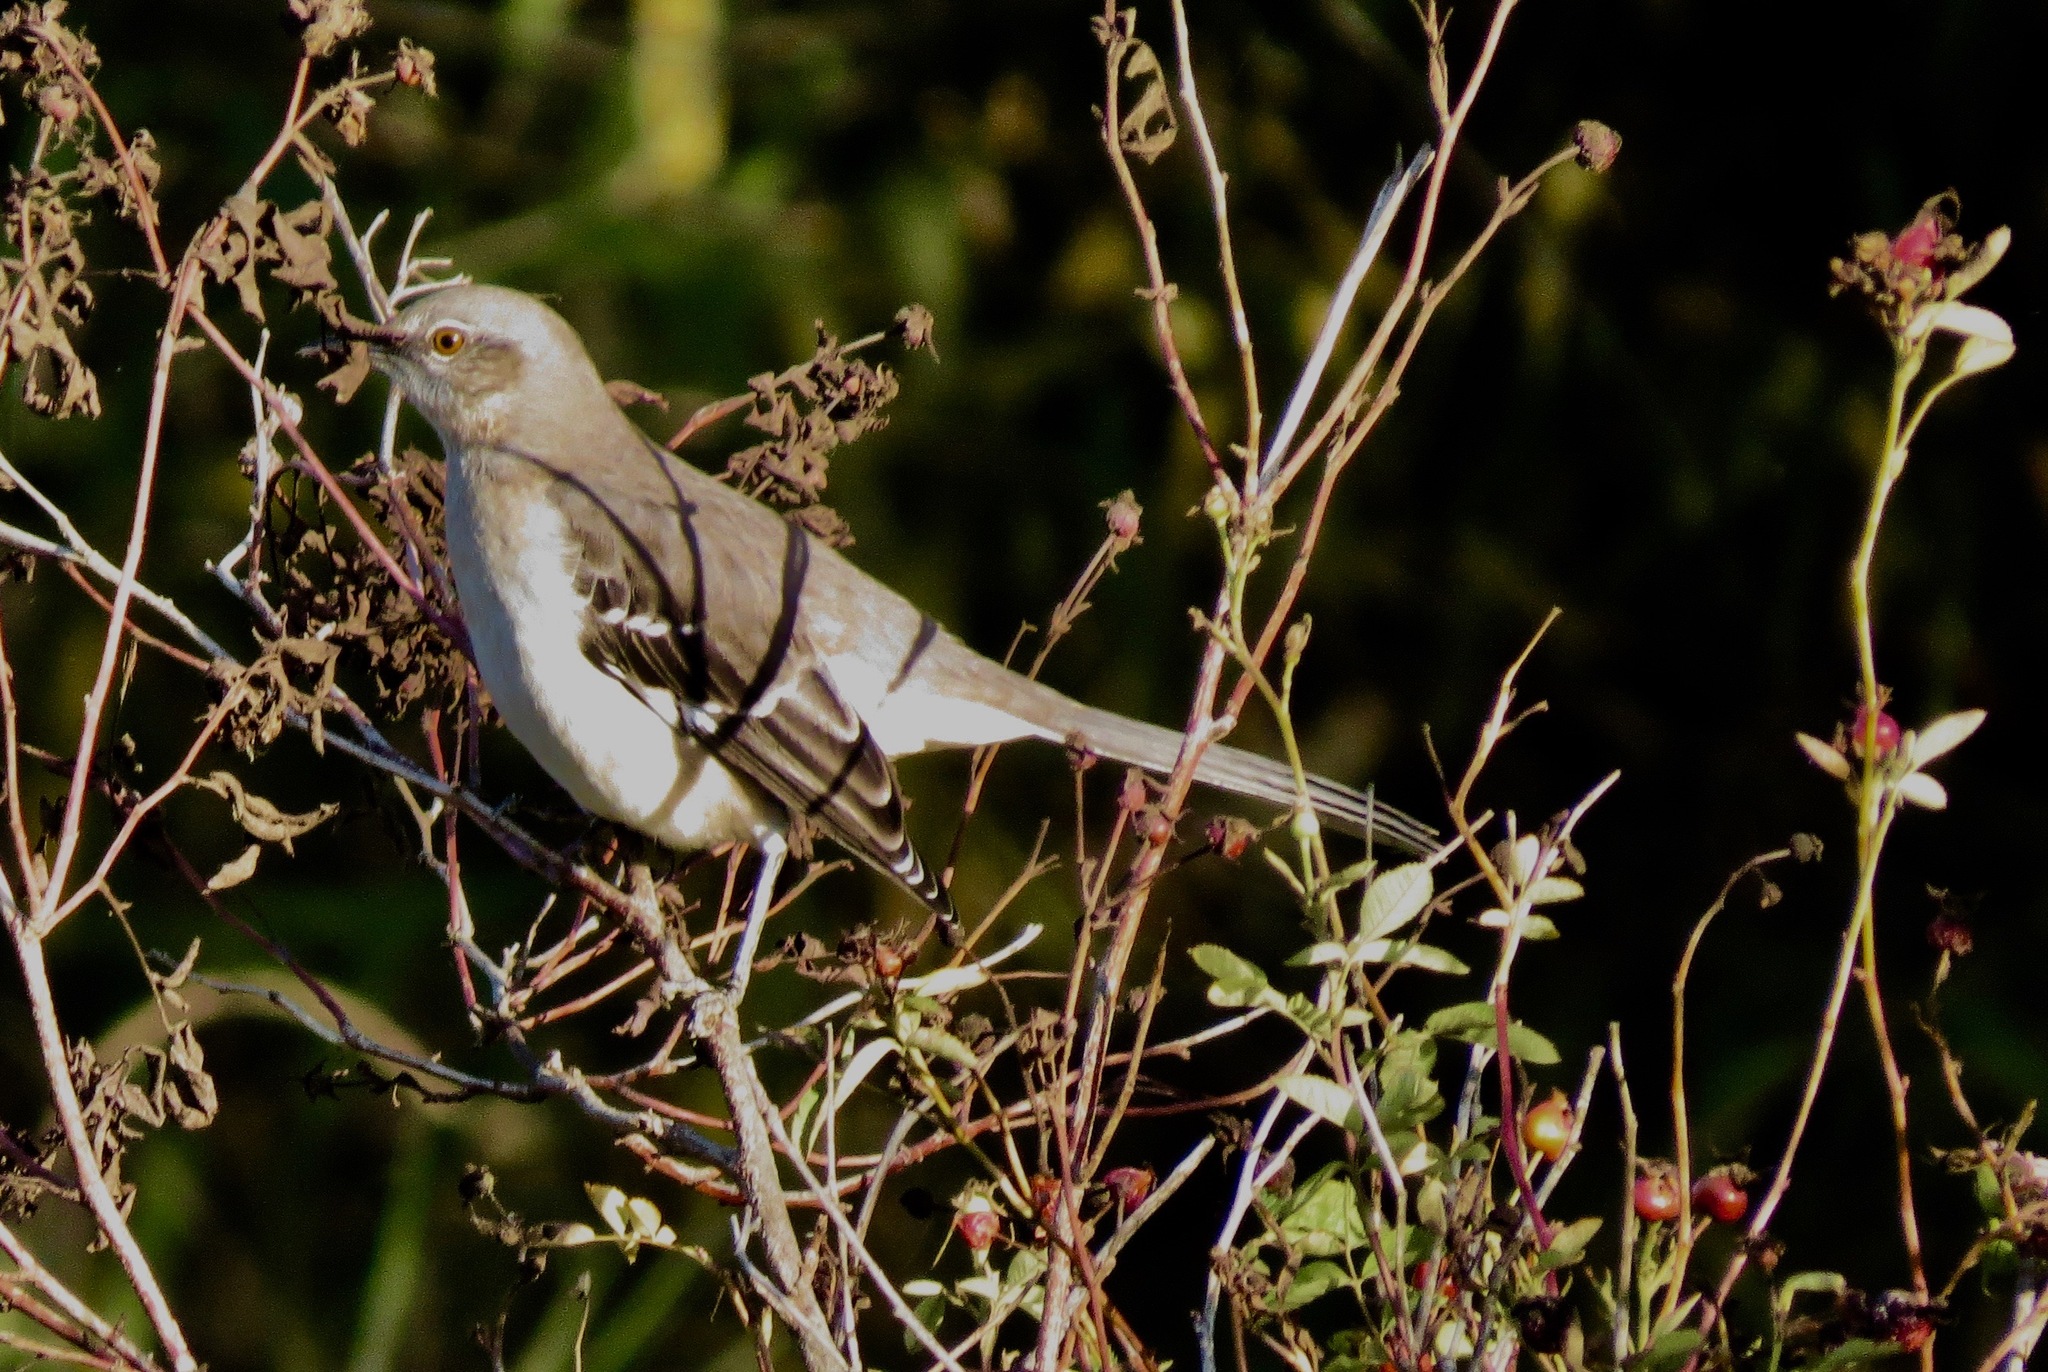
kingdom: Animalia
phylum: Chordata
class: Aves
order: Passeriformes
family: Mimidae
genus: Mimus
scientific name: Mimus polyglottos
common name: Northern mockingbird
